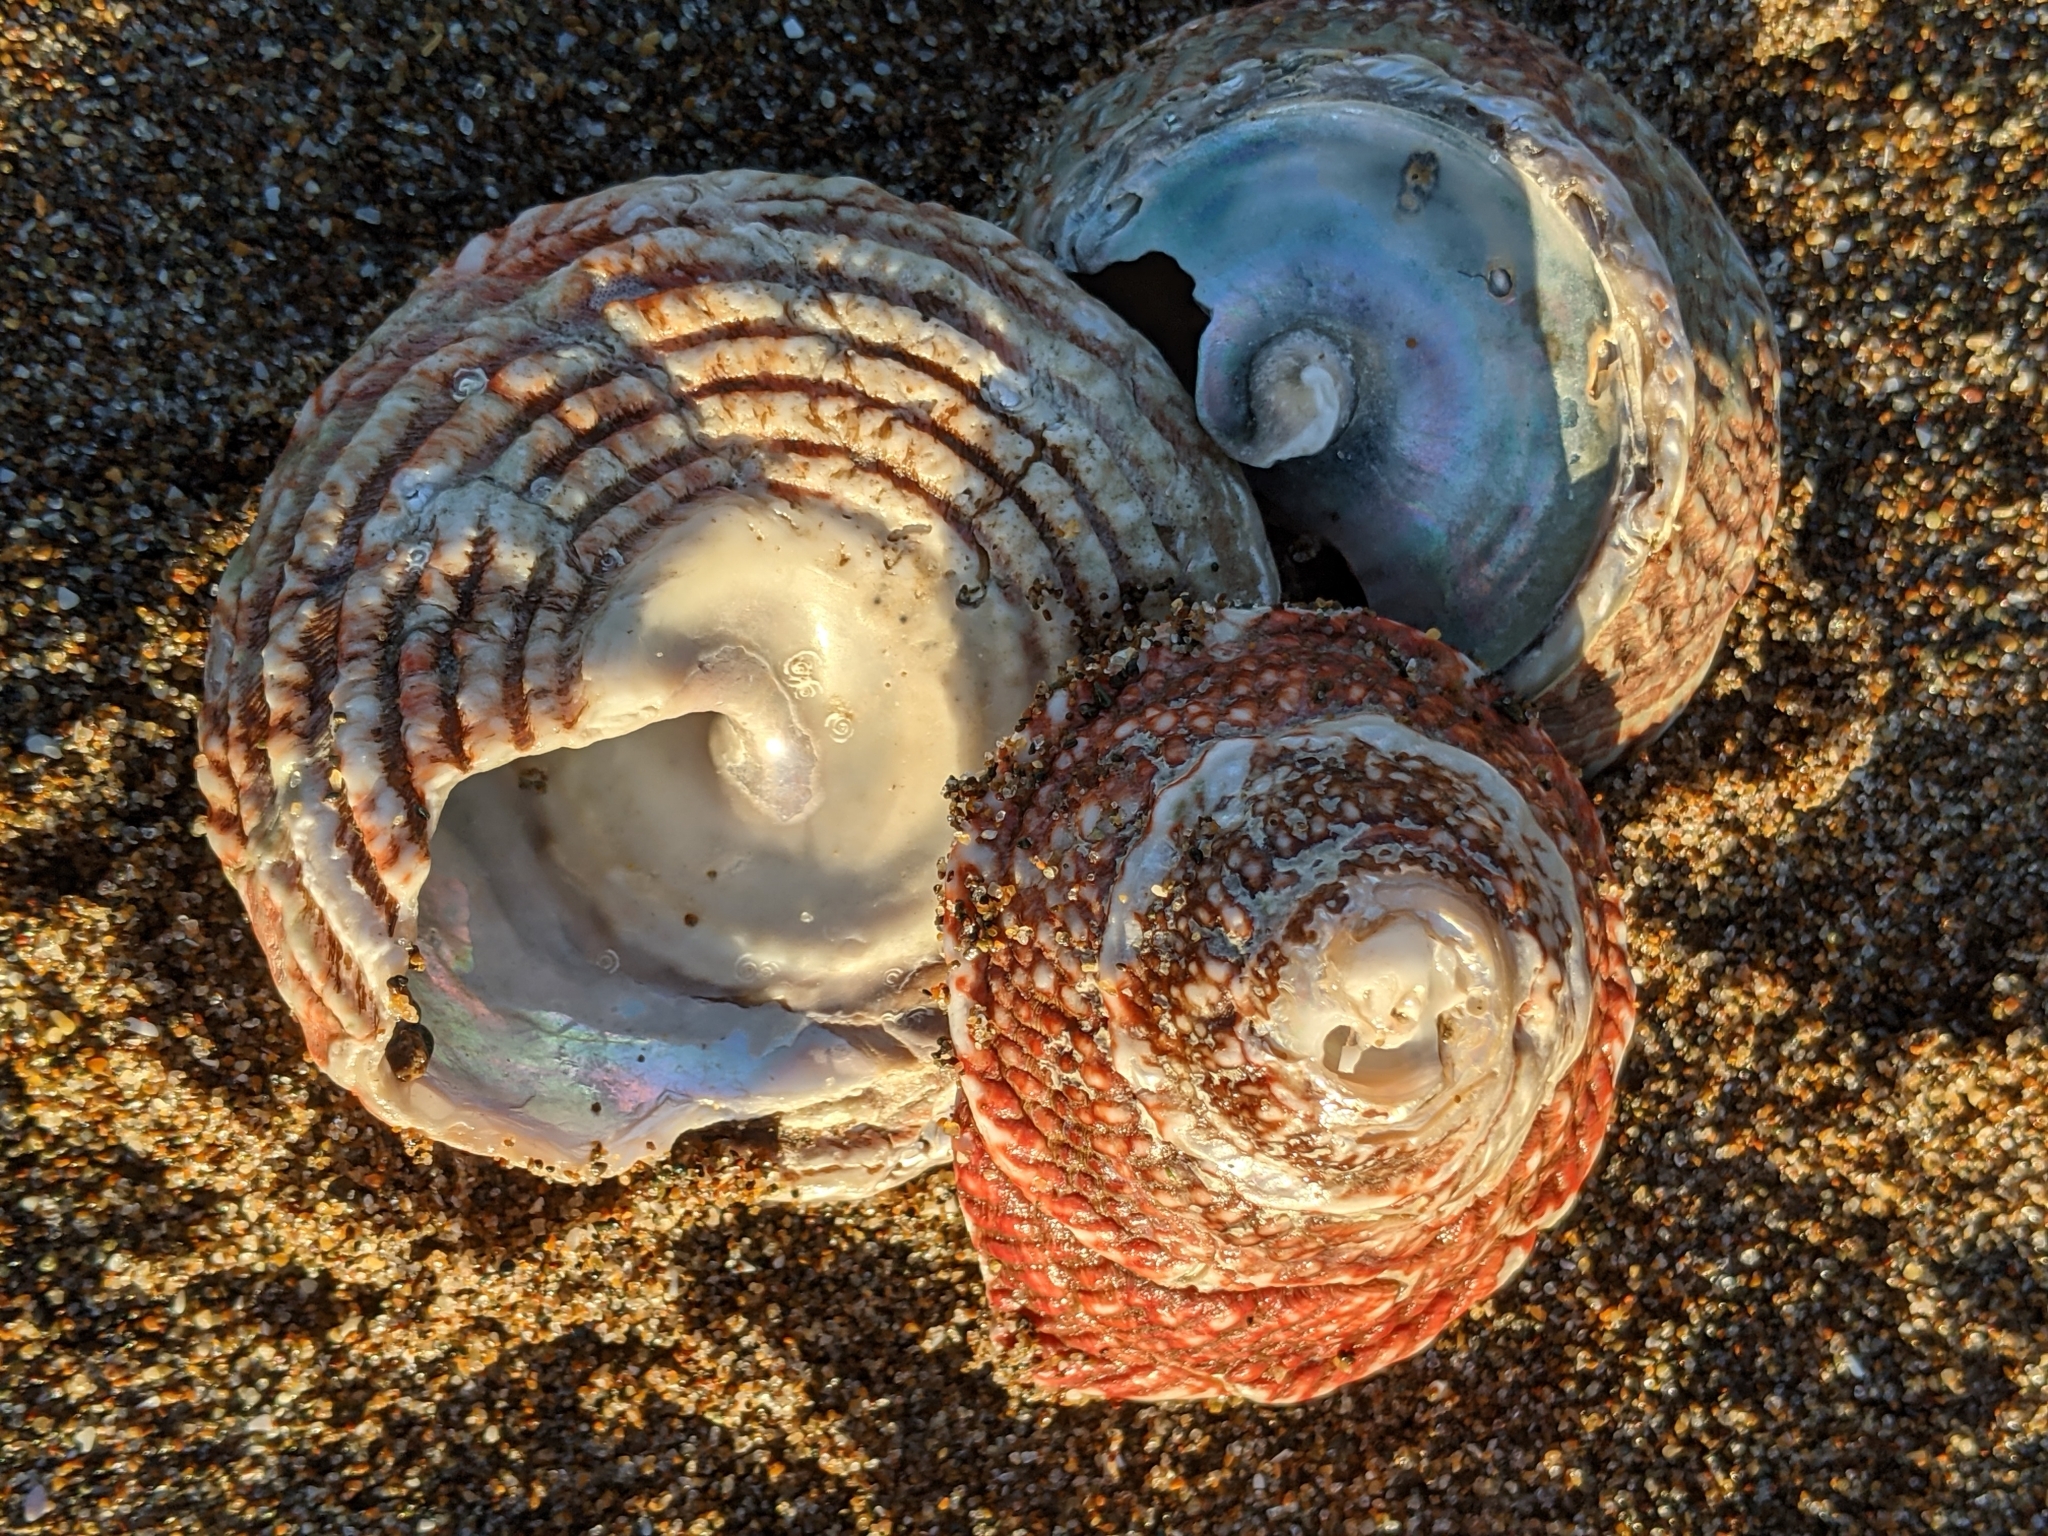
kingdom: Animalia
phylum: Mollusca
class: Gastropoda
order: Trochida
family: Turbinidae
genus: Pomaulax
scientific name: Pomaulax gibberosus
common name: Red turban
